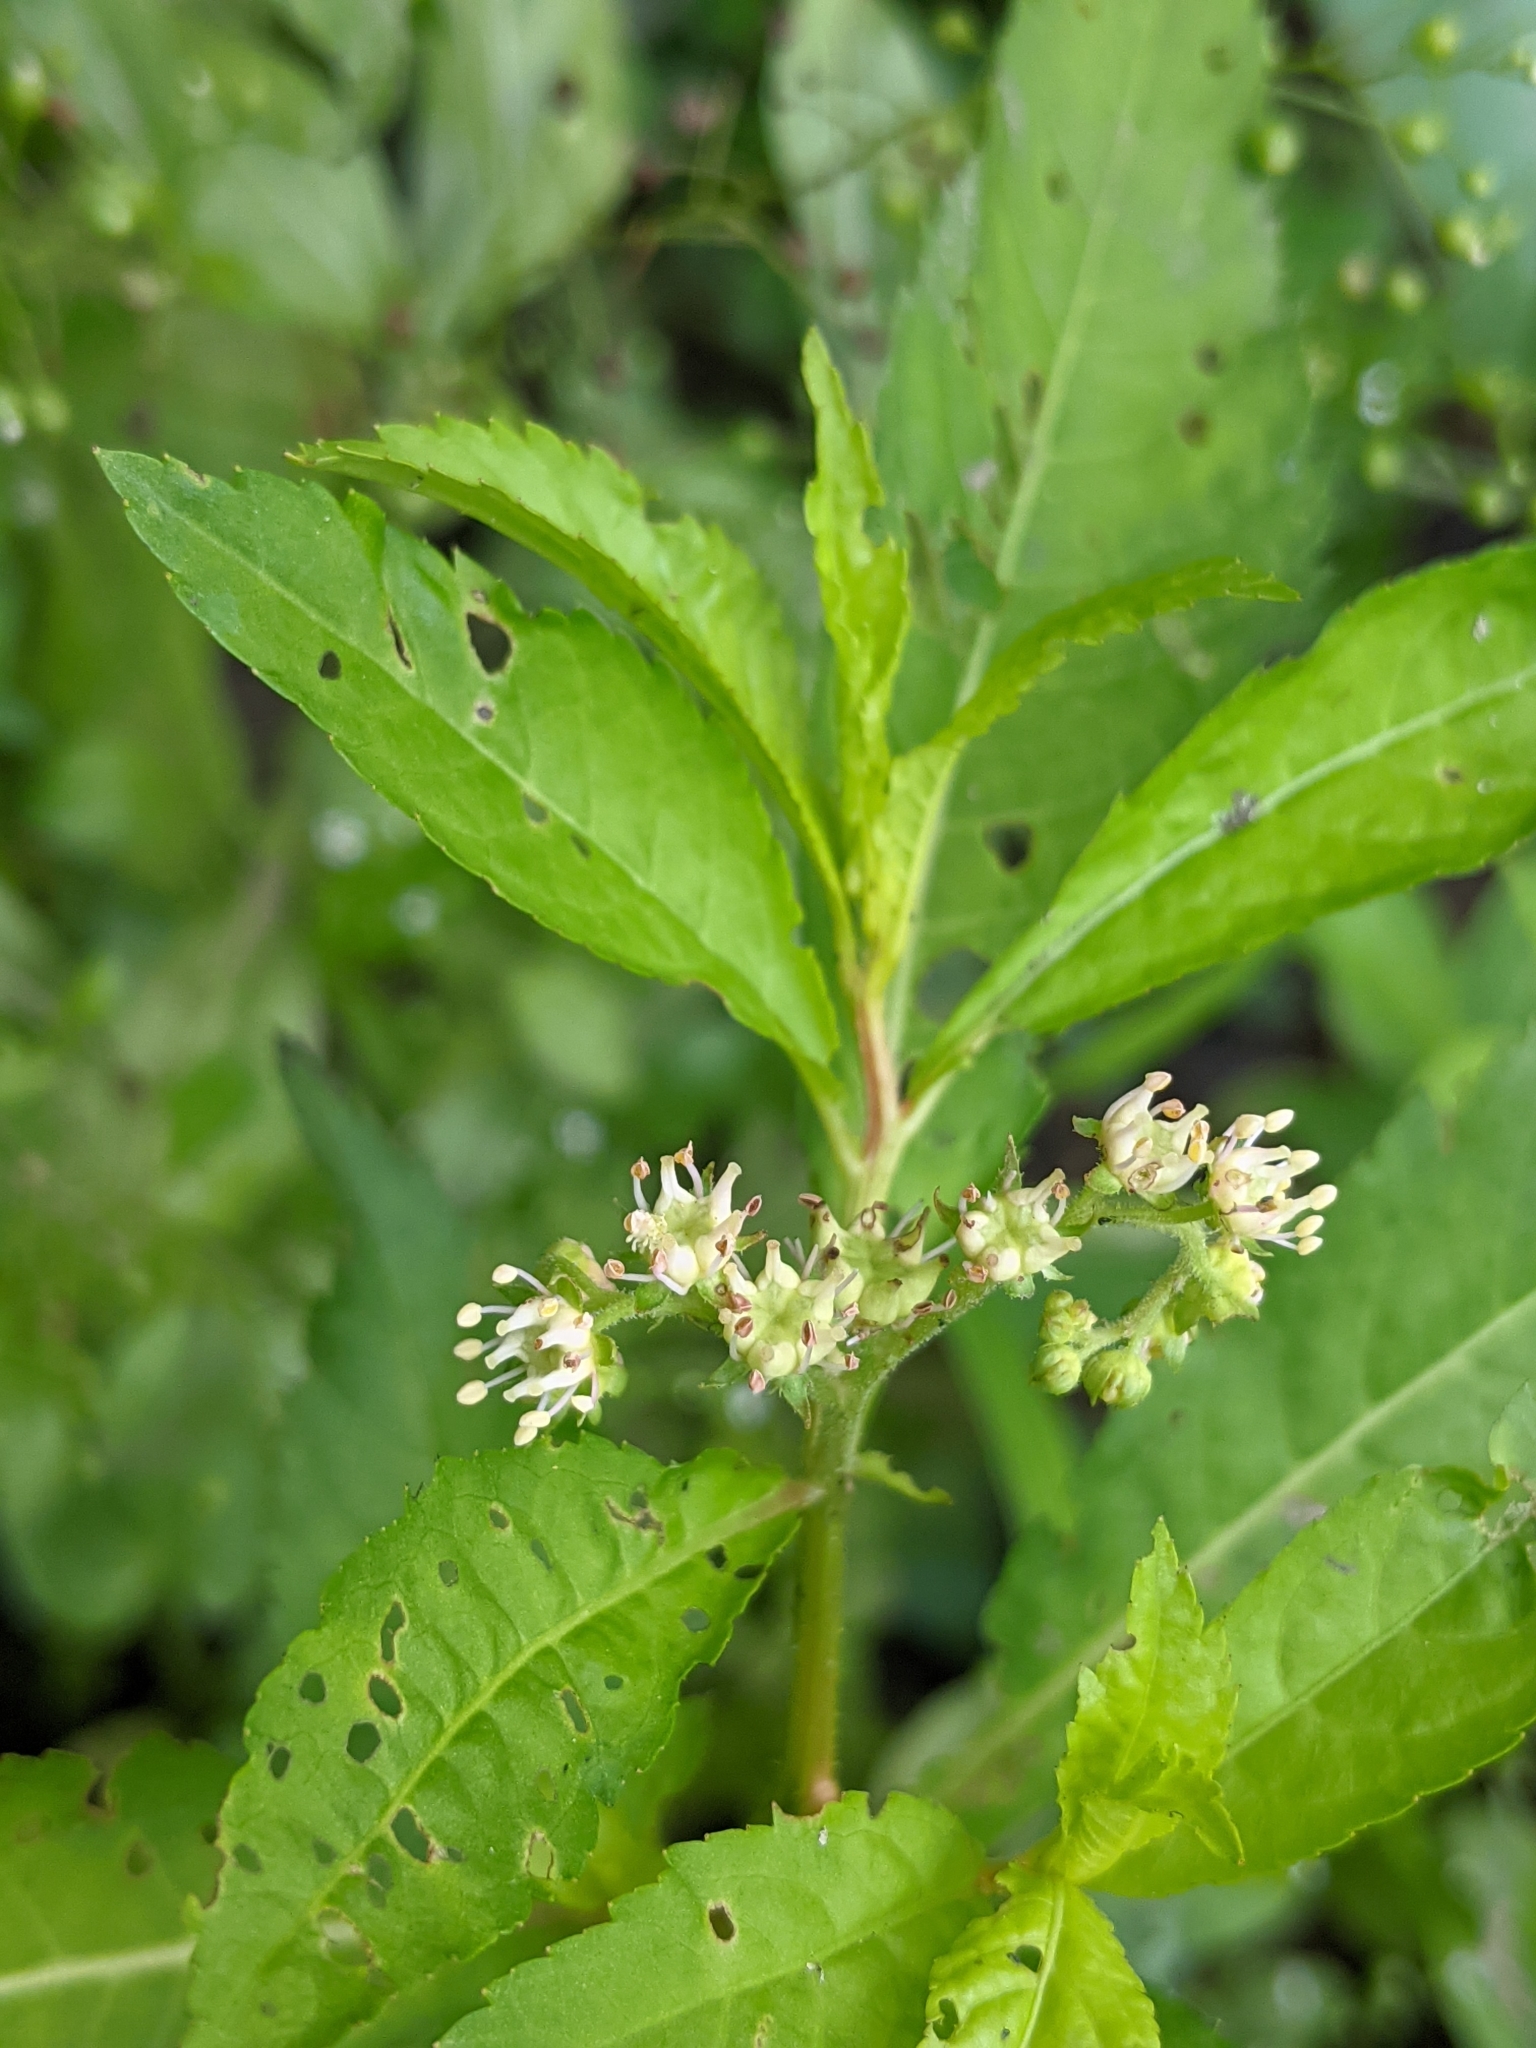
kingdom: Plantae
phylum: Tracheophyta
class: Magnoliopsida
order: Saxifragales
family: Penthoraceae
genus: Penthorum
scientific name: Penthorum sedoides
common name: Ditch stonecrop
